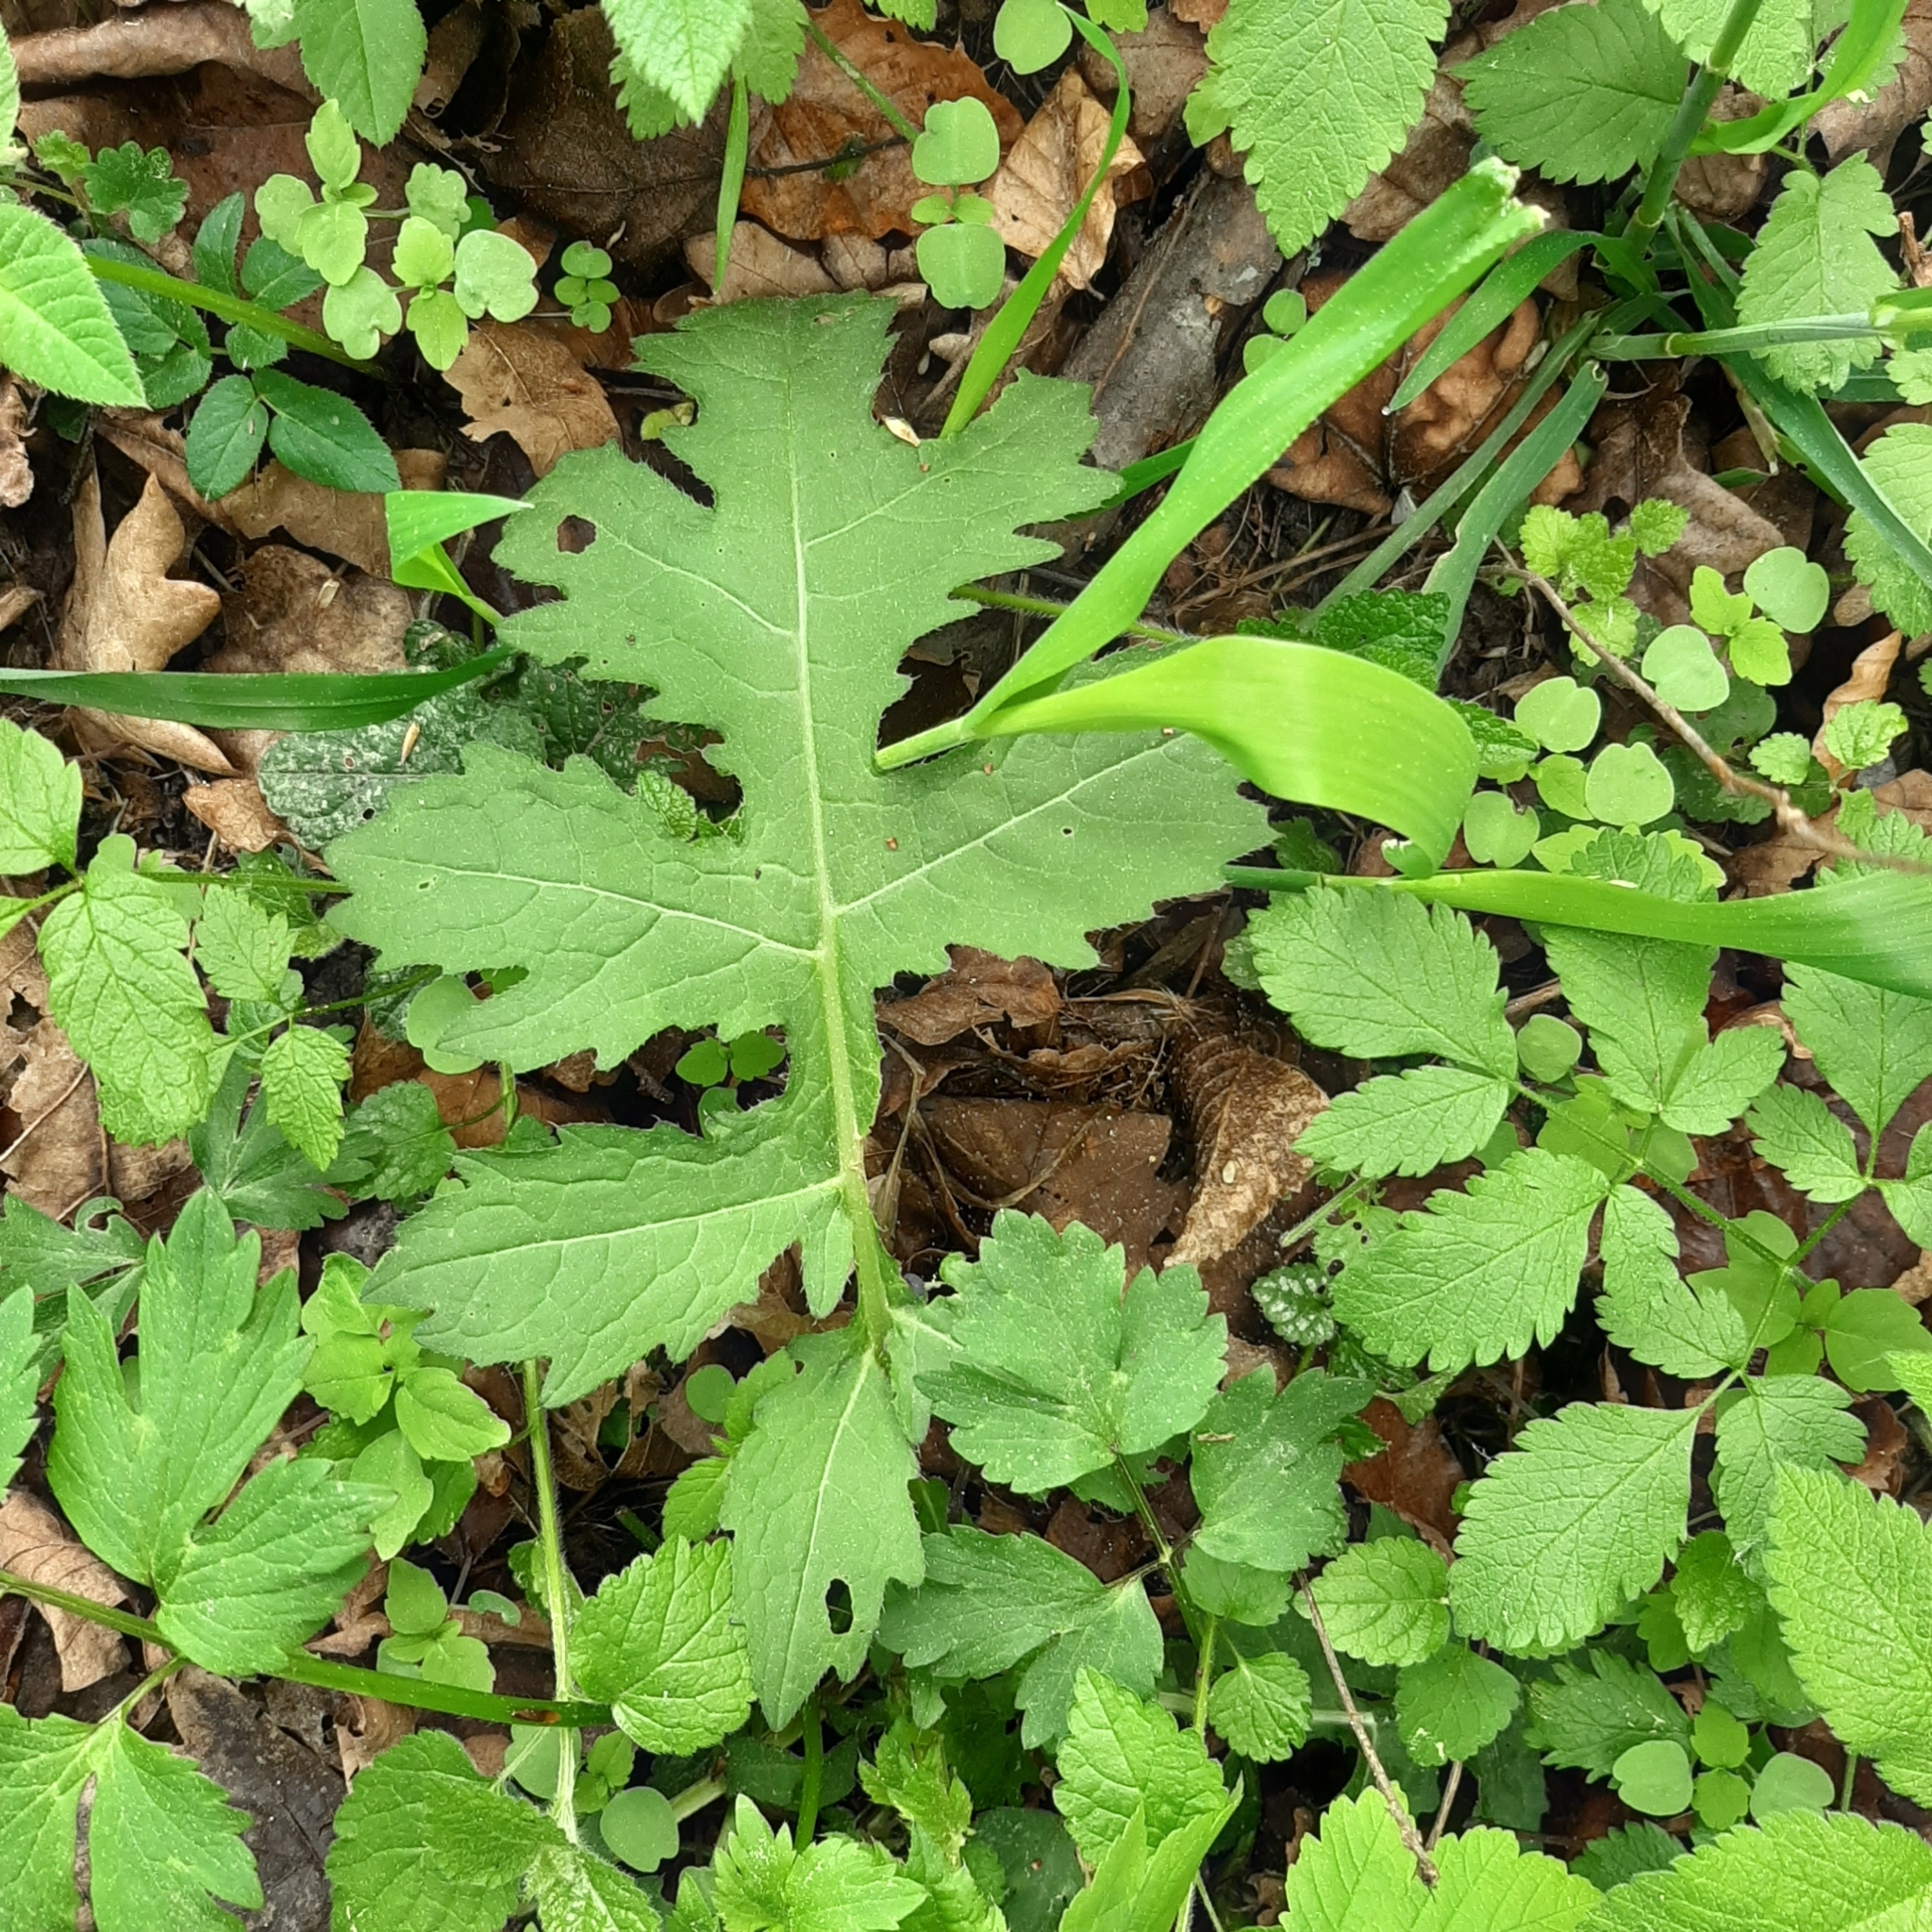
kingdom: Plantae
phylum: Tracheophyta
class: Magnoliopsida
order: Asterales
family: Asteraceae
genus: Cirsium
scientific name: Cirsium oleraceum
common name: Cabbage thistle
